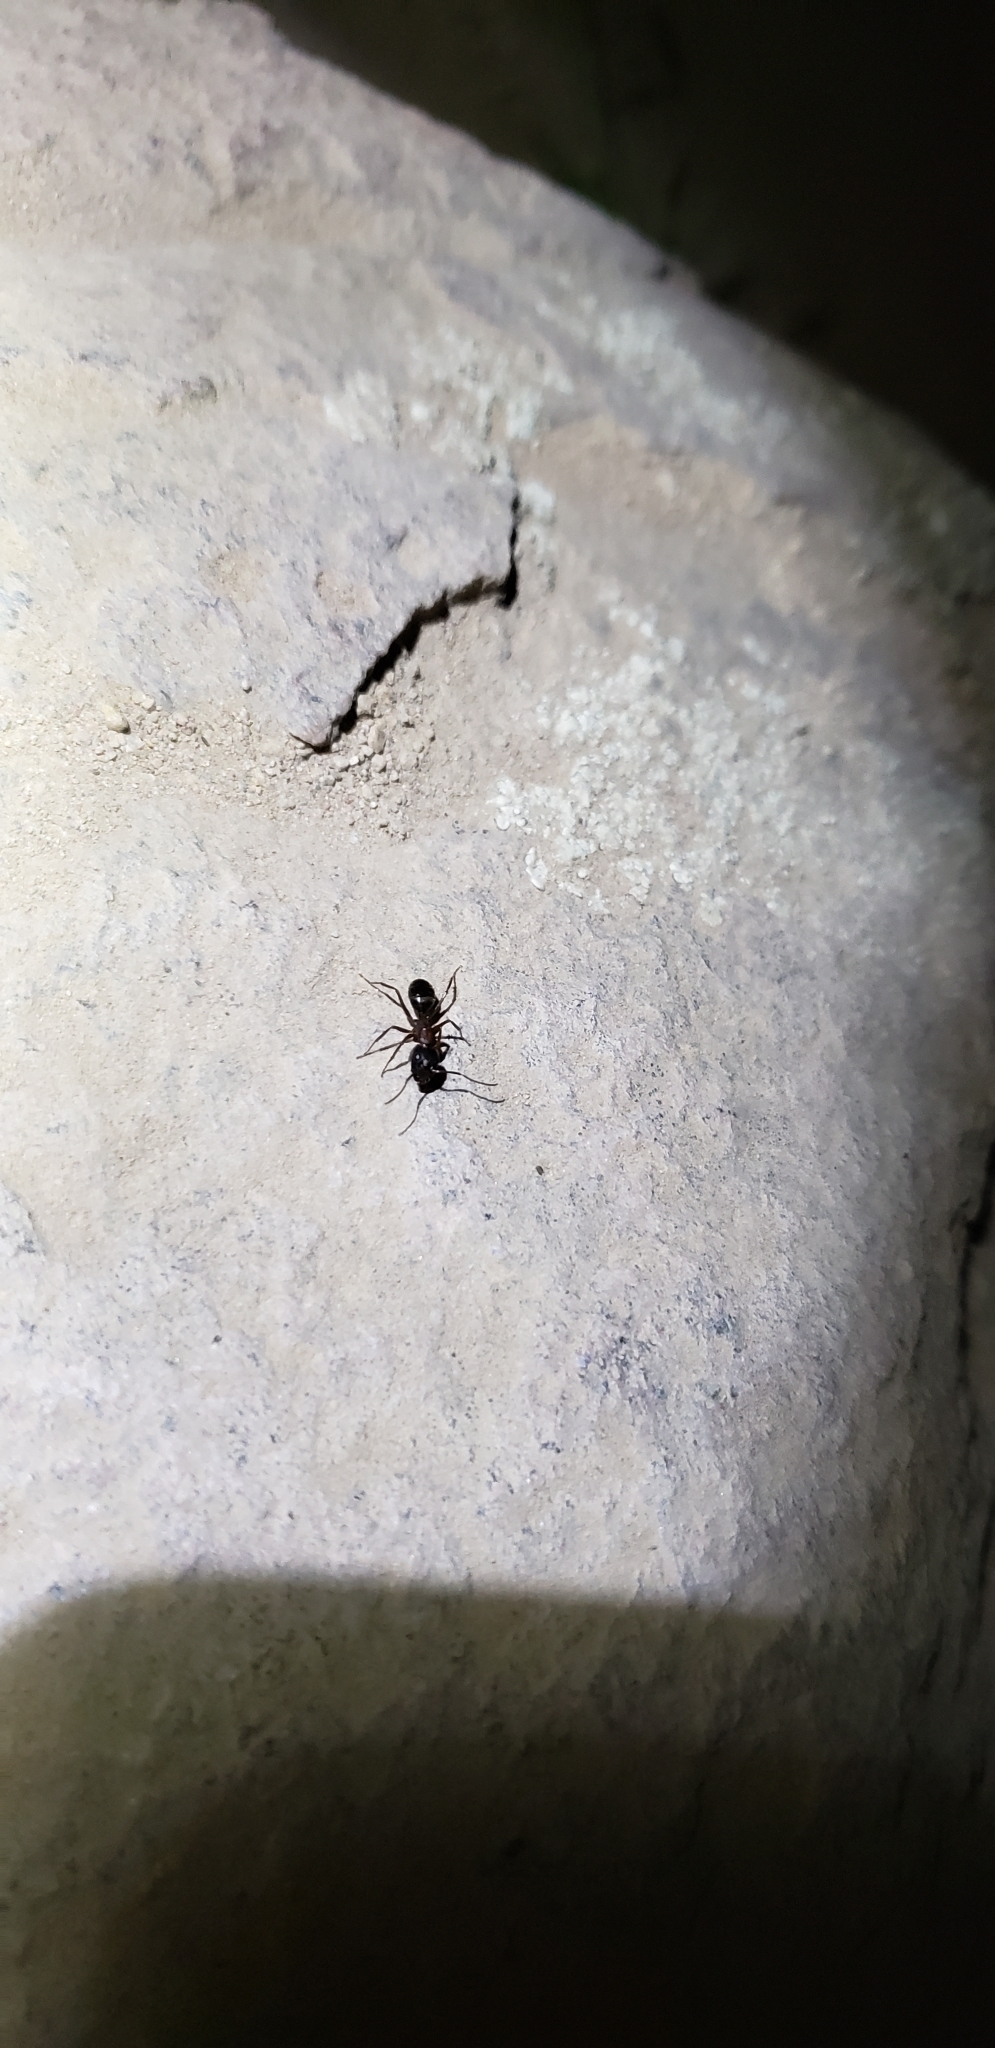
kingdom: Animalia
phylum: Arthropoda
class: Insecta
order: Hymenoptera
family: Formicidae
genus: Camponotus
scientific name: Camponotus dumetorum
